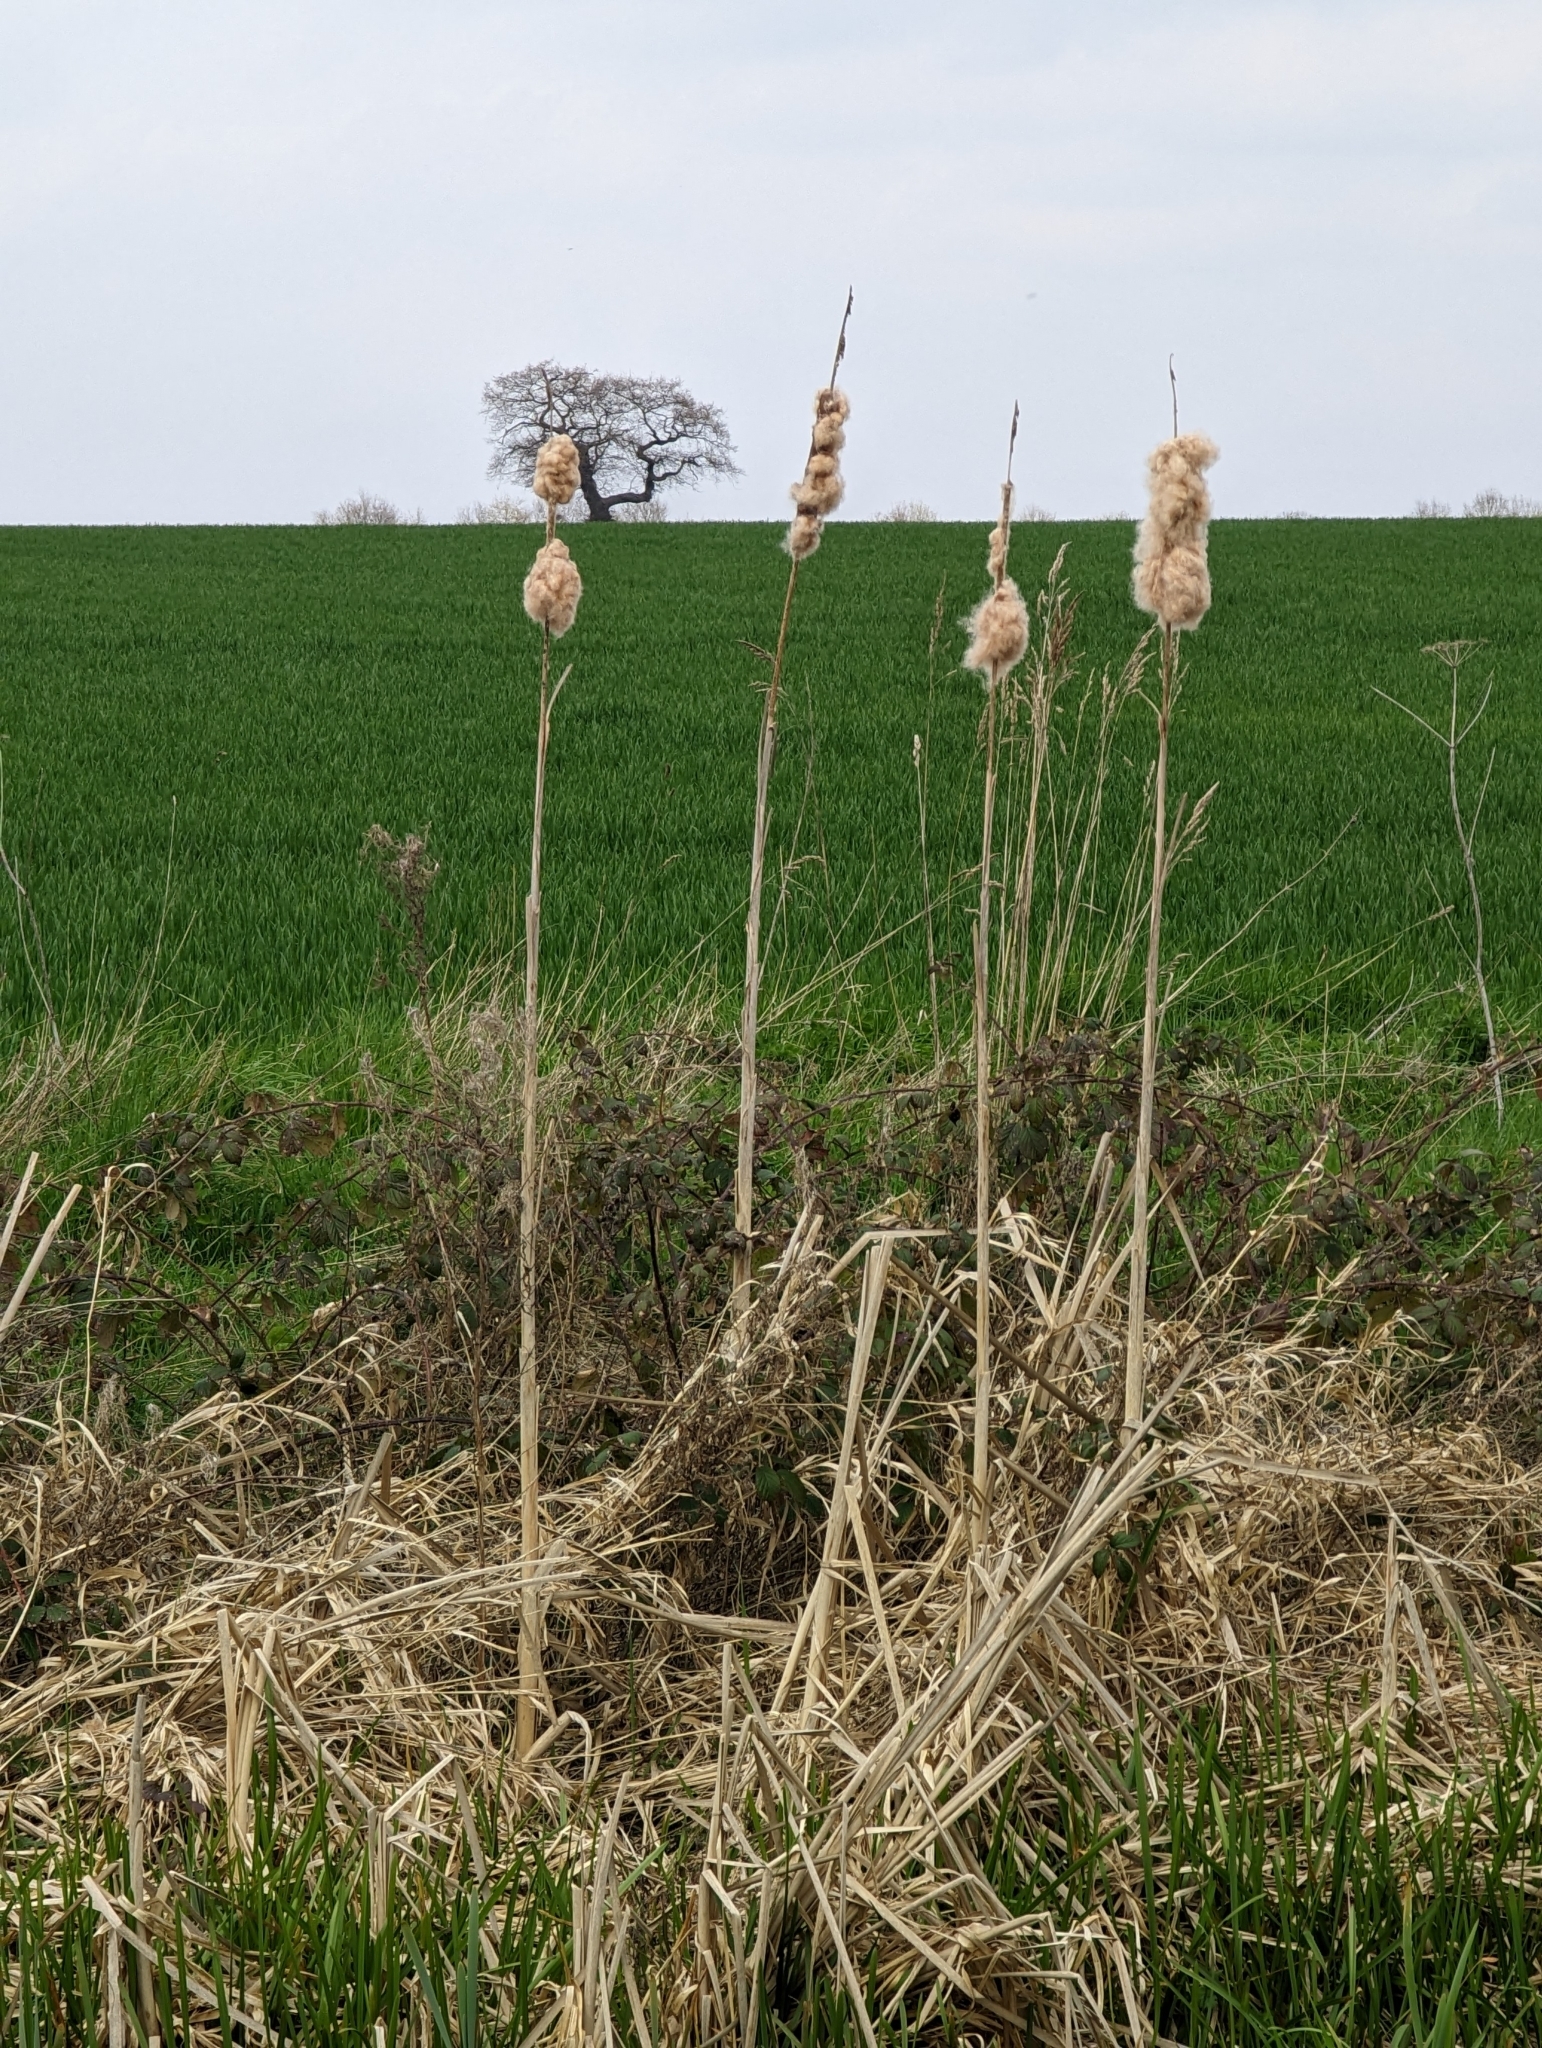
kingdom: Plantae
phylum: Tracheophyta
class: Liliopsida
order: Poales
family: Typhaceae
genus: Typha
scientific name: Typha latifolia
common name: Broadleaf cattail
